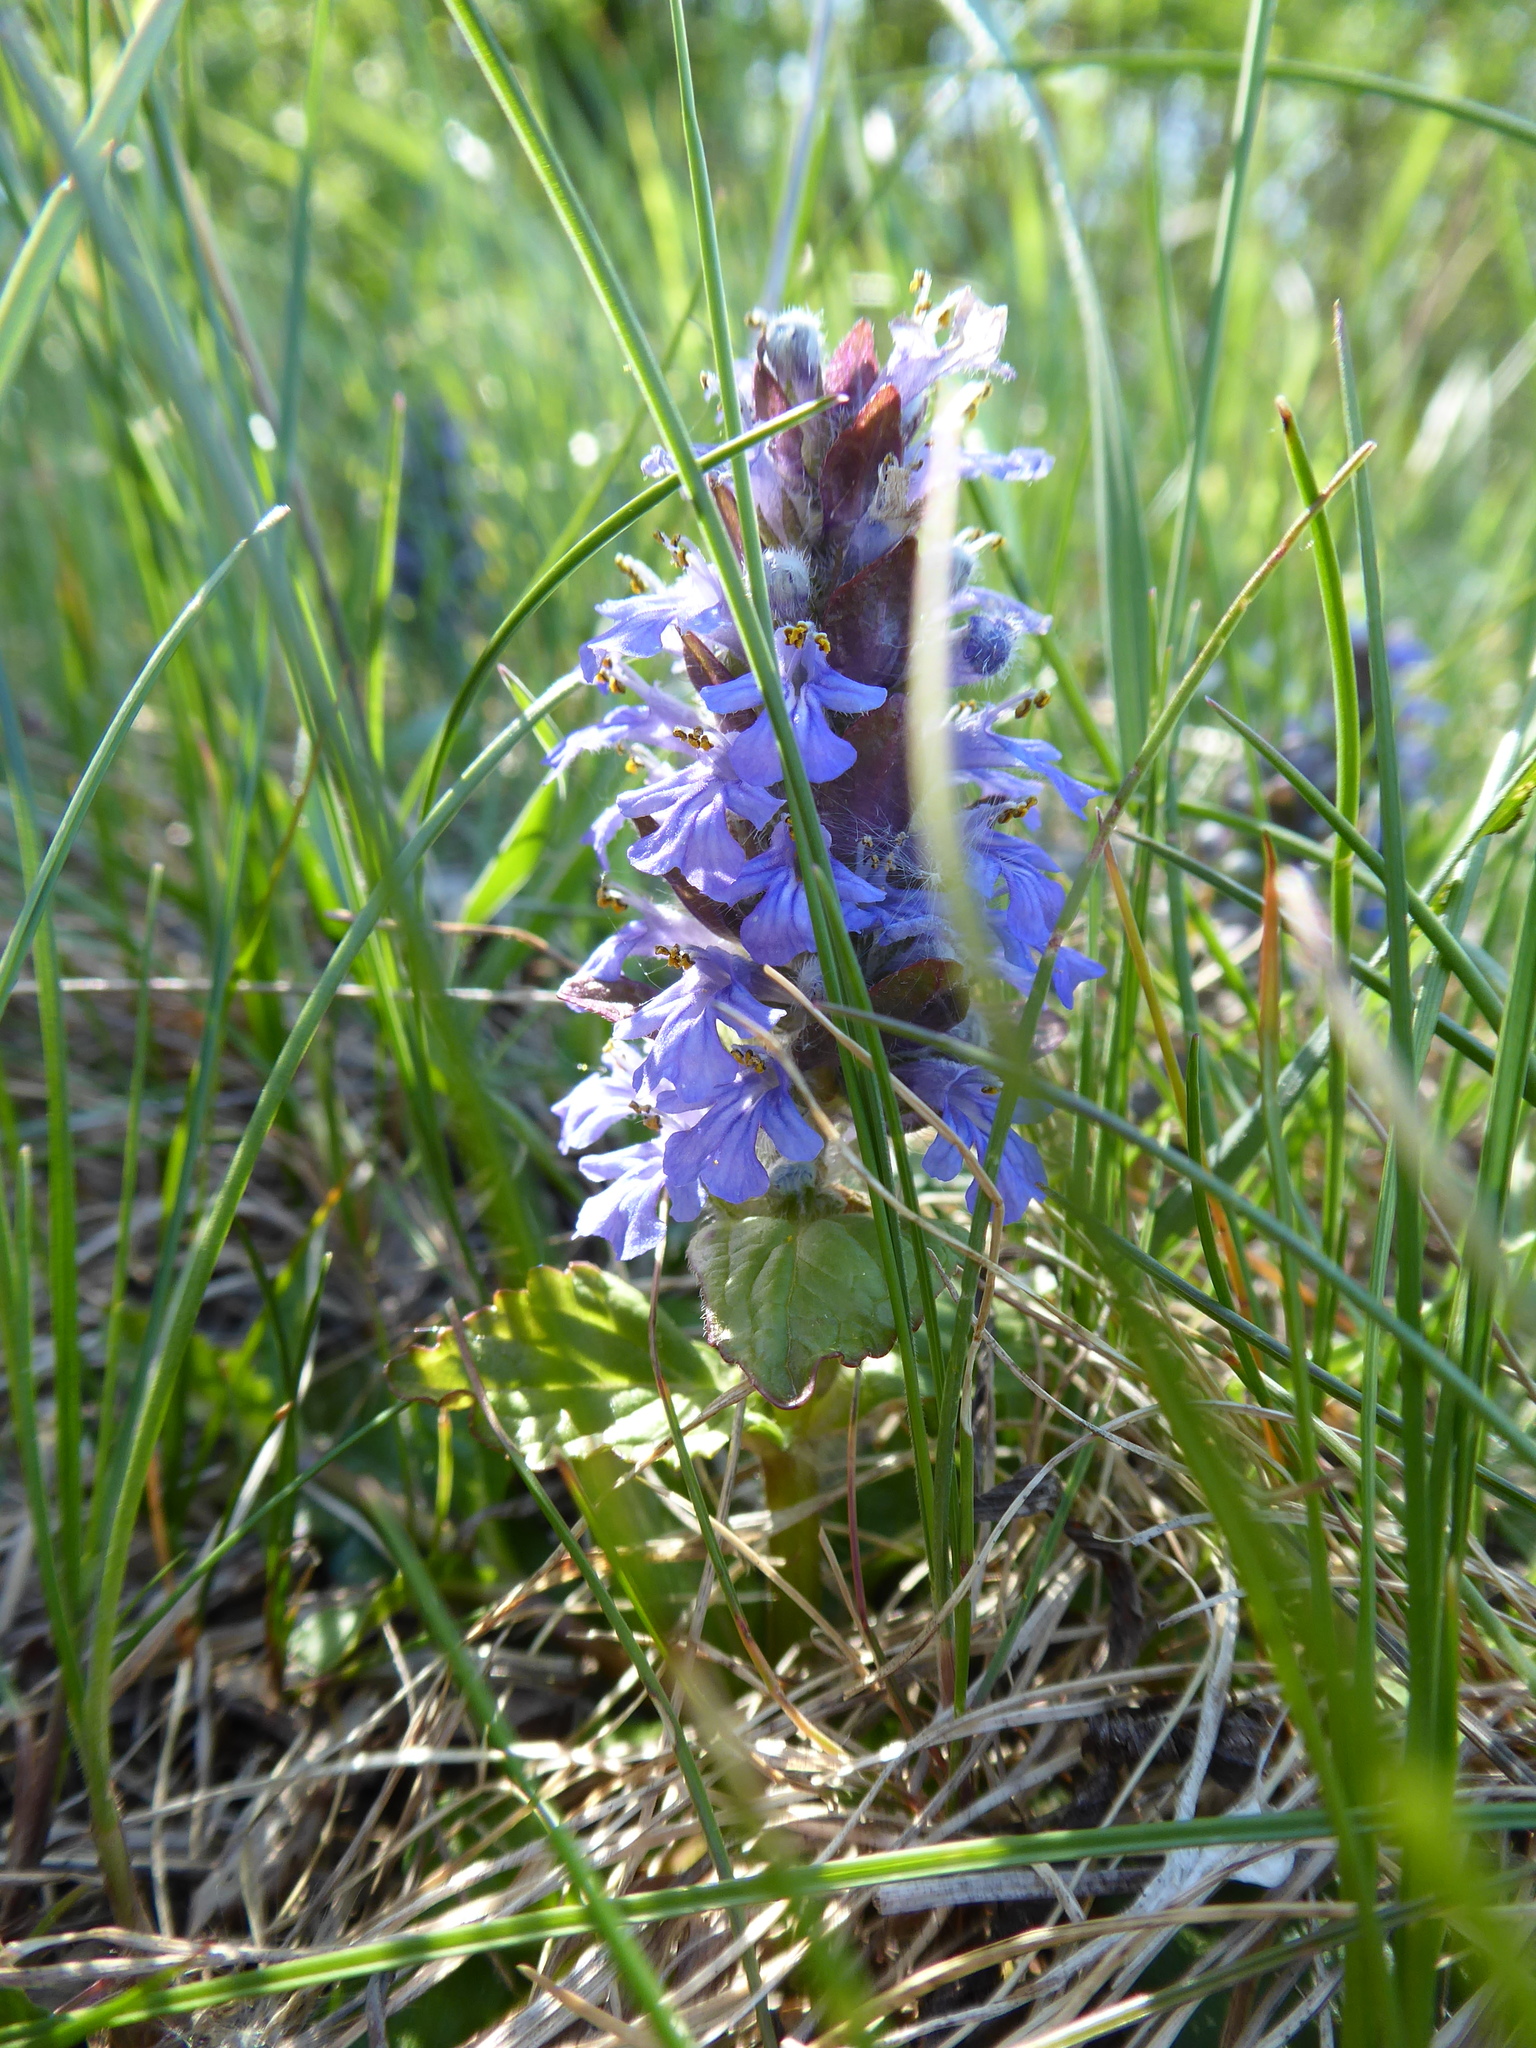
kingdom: Plantae
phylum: Tracheophyta
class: Magnoliopsida
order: Lamiales
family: Lamiaceae
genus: Ajuga
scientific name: Ajuga reptans
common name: Bugle
